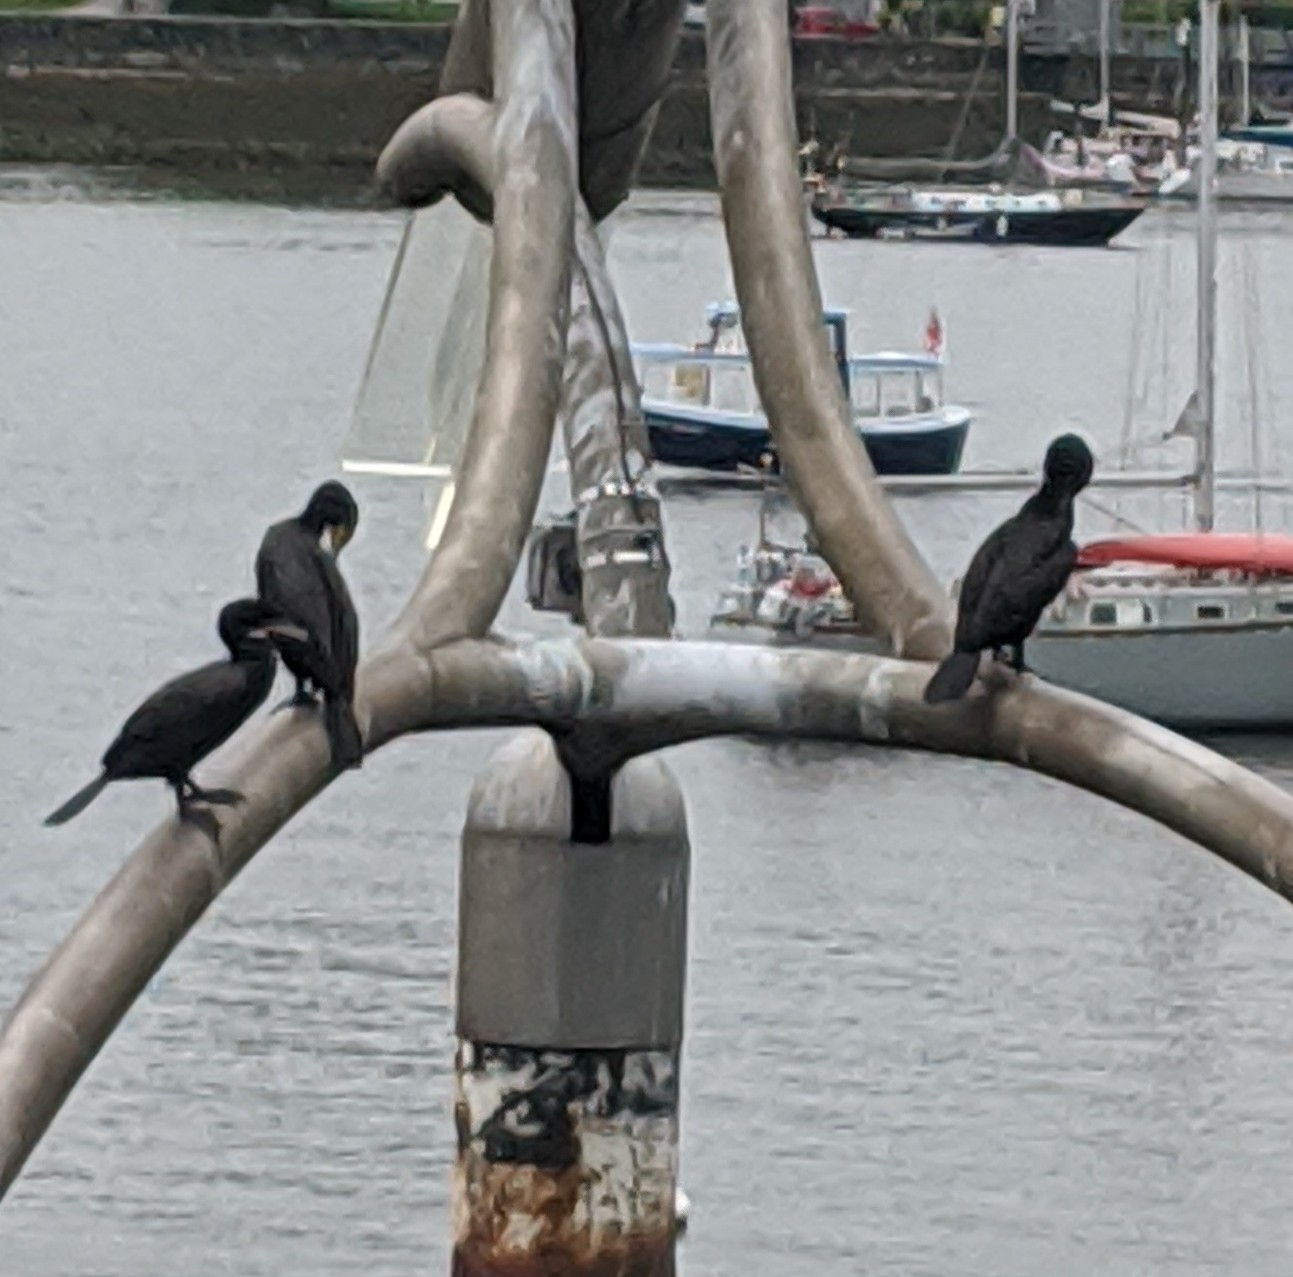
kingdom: Animalia
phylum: Chordata
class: Aves
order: Suliformes
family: Phalacrocoracidae
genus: Phalacrocorax
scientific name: Phalacrocorax auritus
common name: Double-crested cormorant
